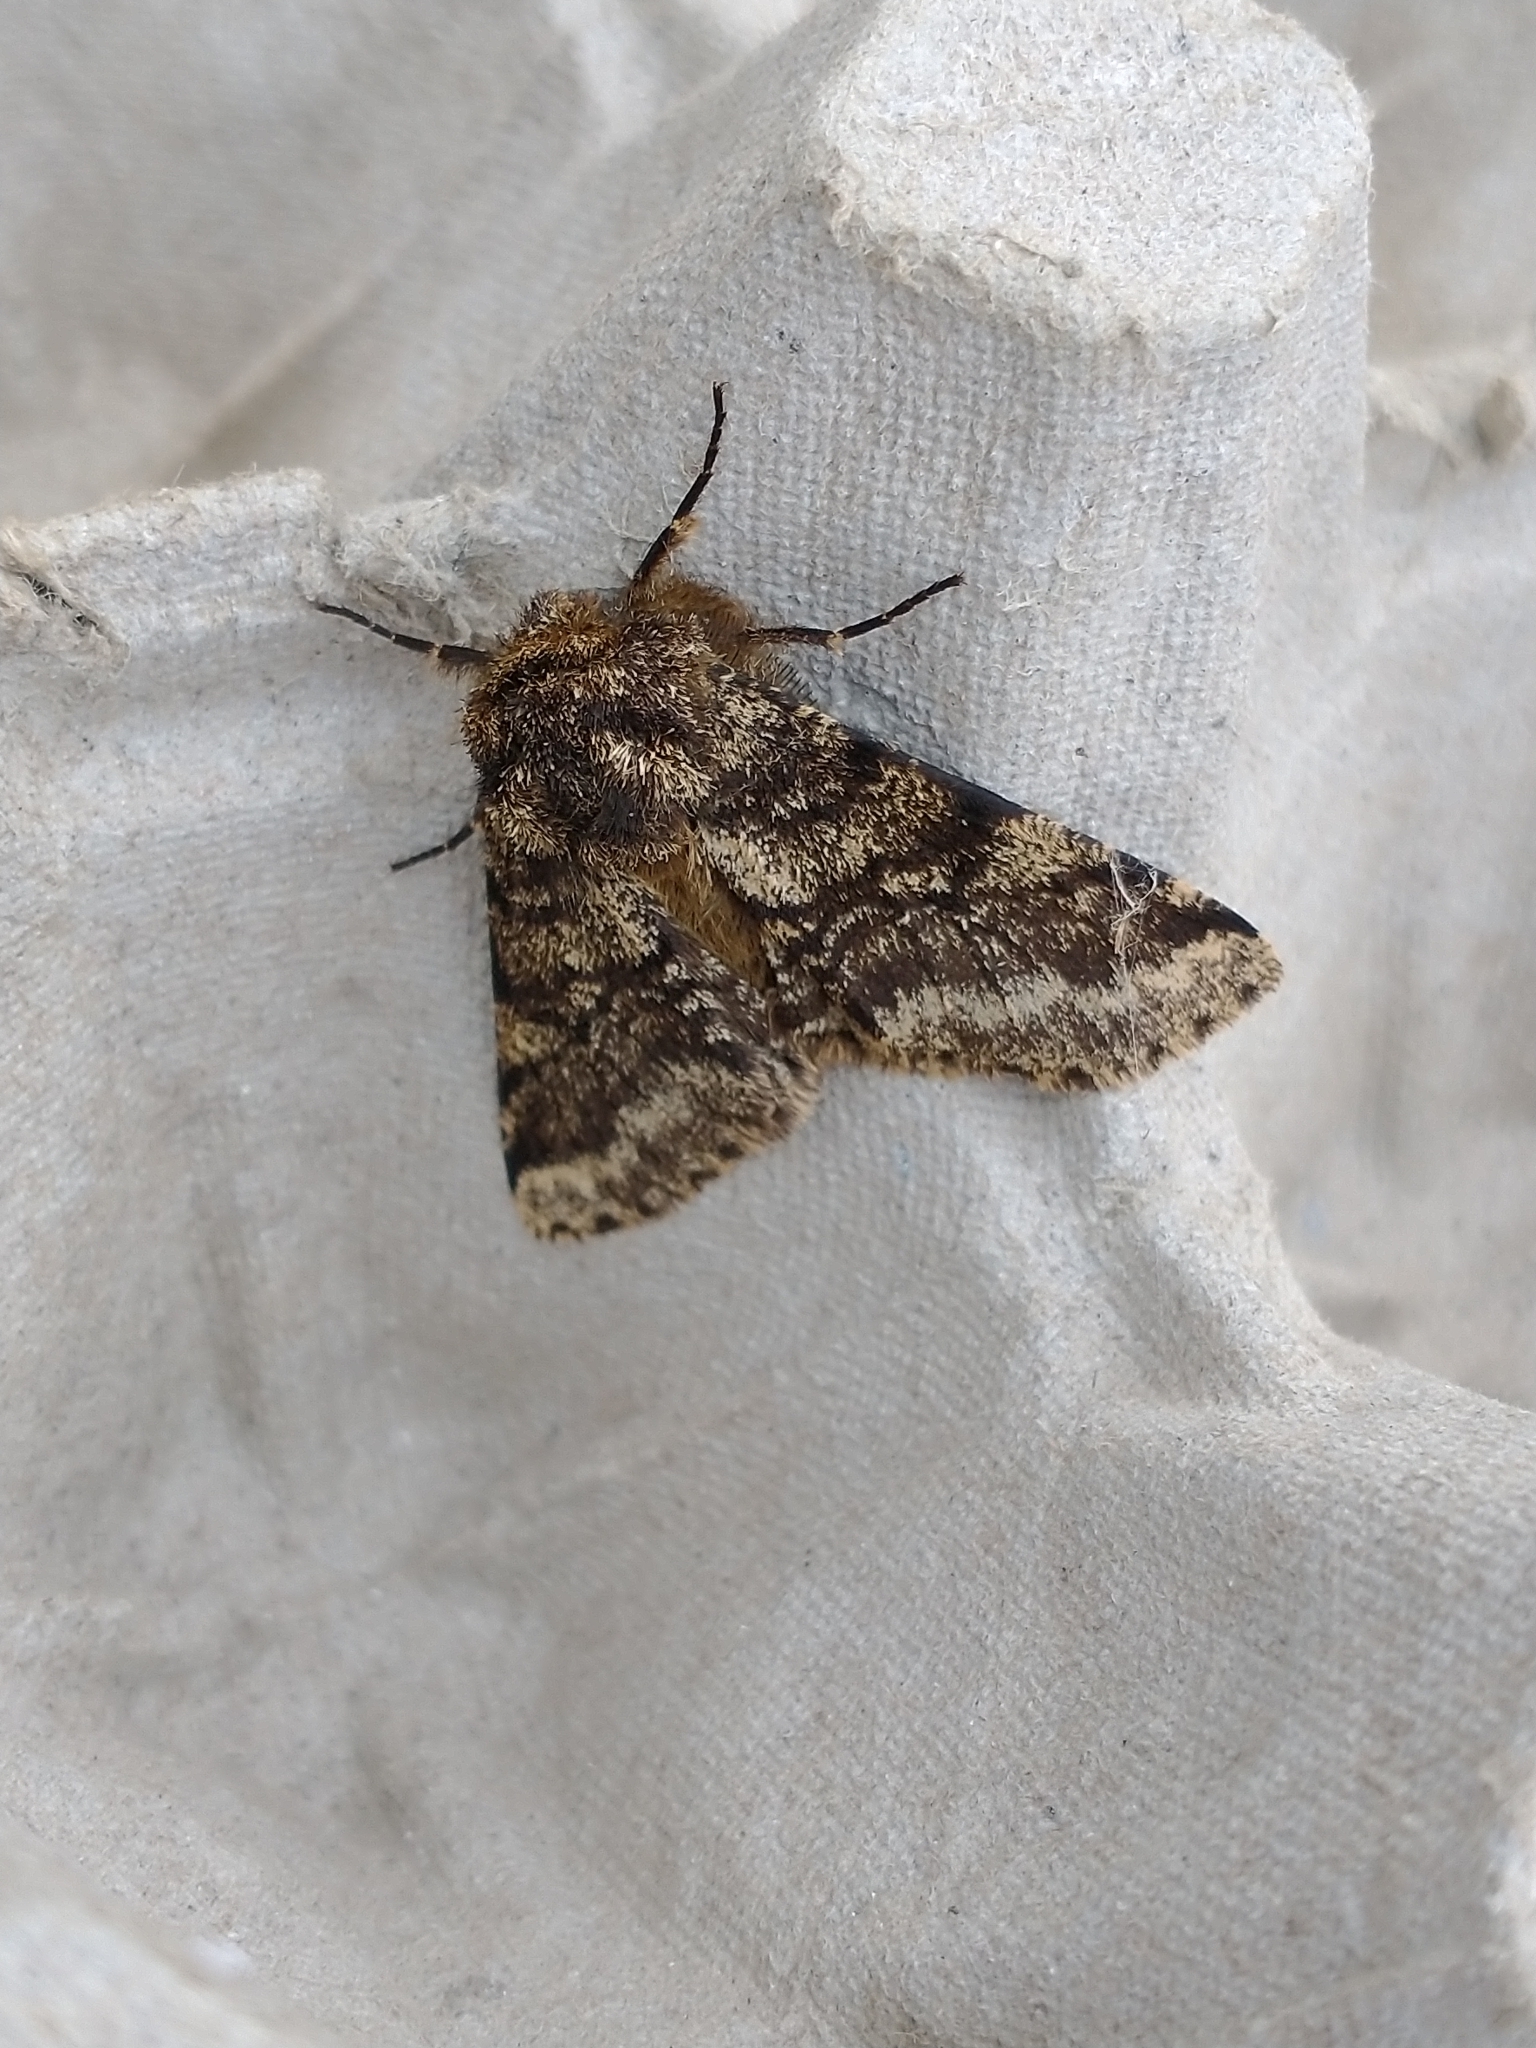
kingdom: Animalia
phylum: Arthropoda
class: Insecta
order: Lepidoptera
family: Geometridae
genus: Lycia
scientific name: Lycia hirtaria
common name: Brindled beauty
